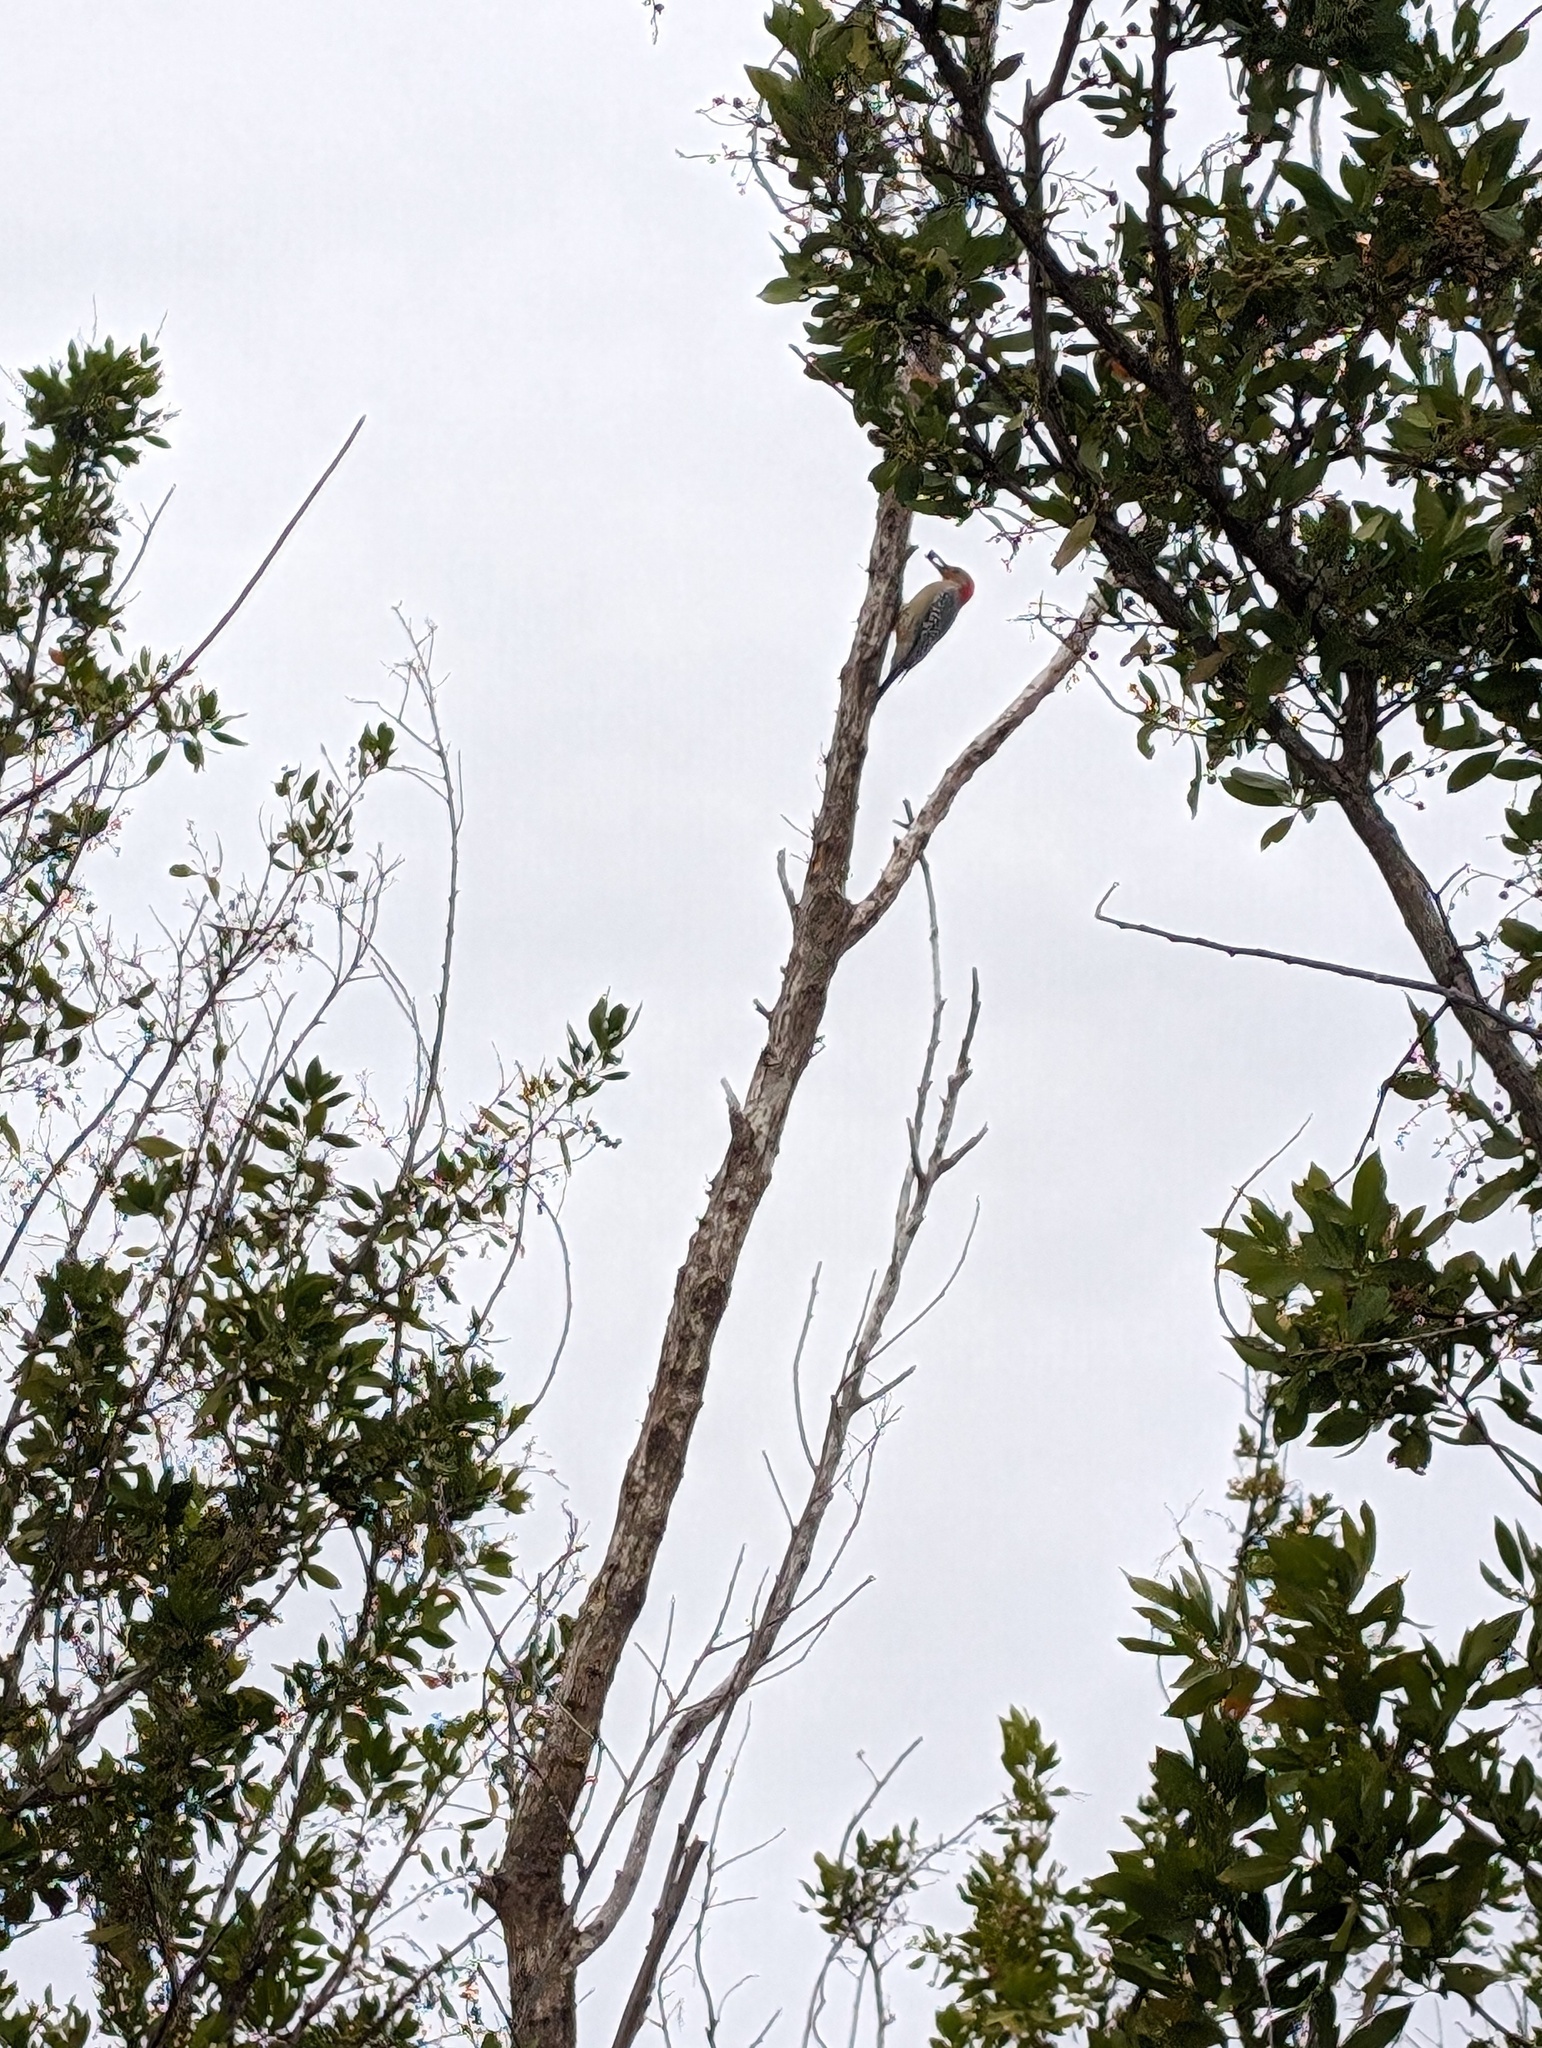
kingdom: Animalia
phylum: Chordata
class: Aves
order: Piciformes
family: Picidae
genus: Melanerpes
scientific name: Melanerpes carolinus
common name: Red-bellied woodpecker
